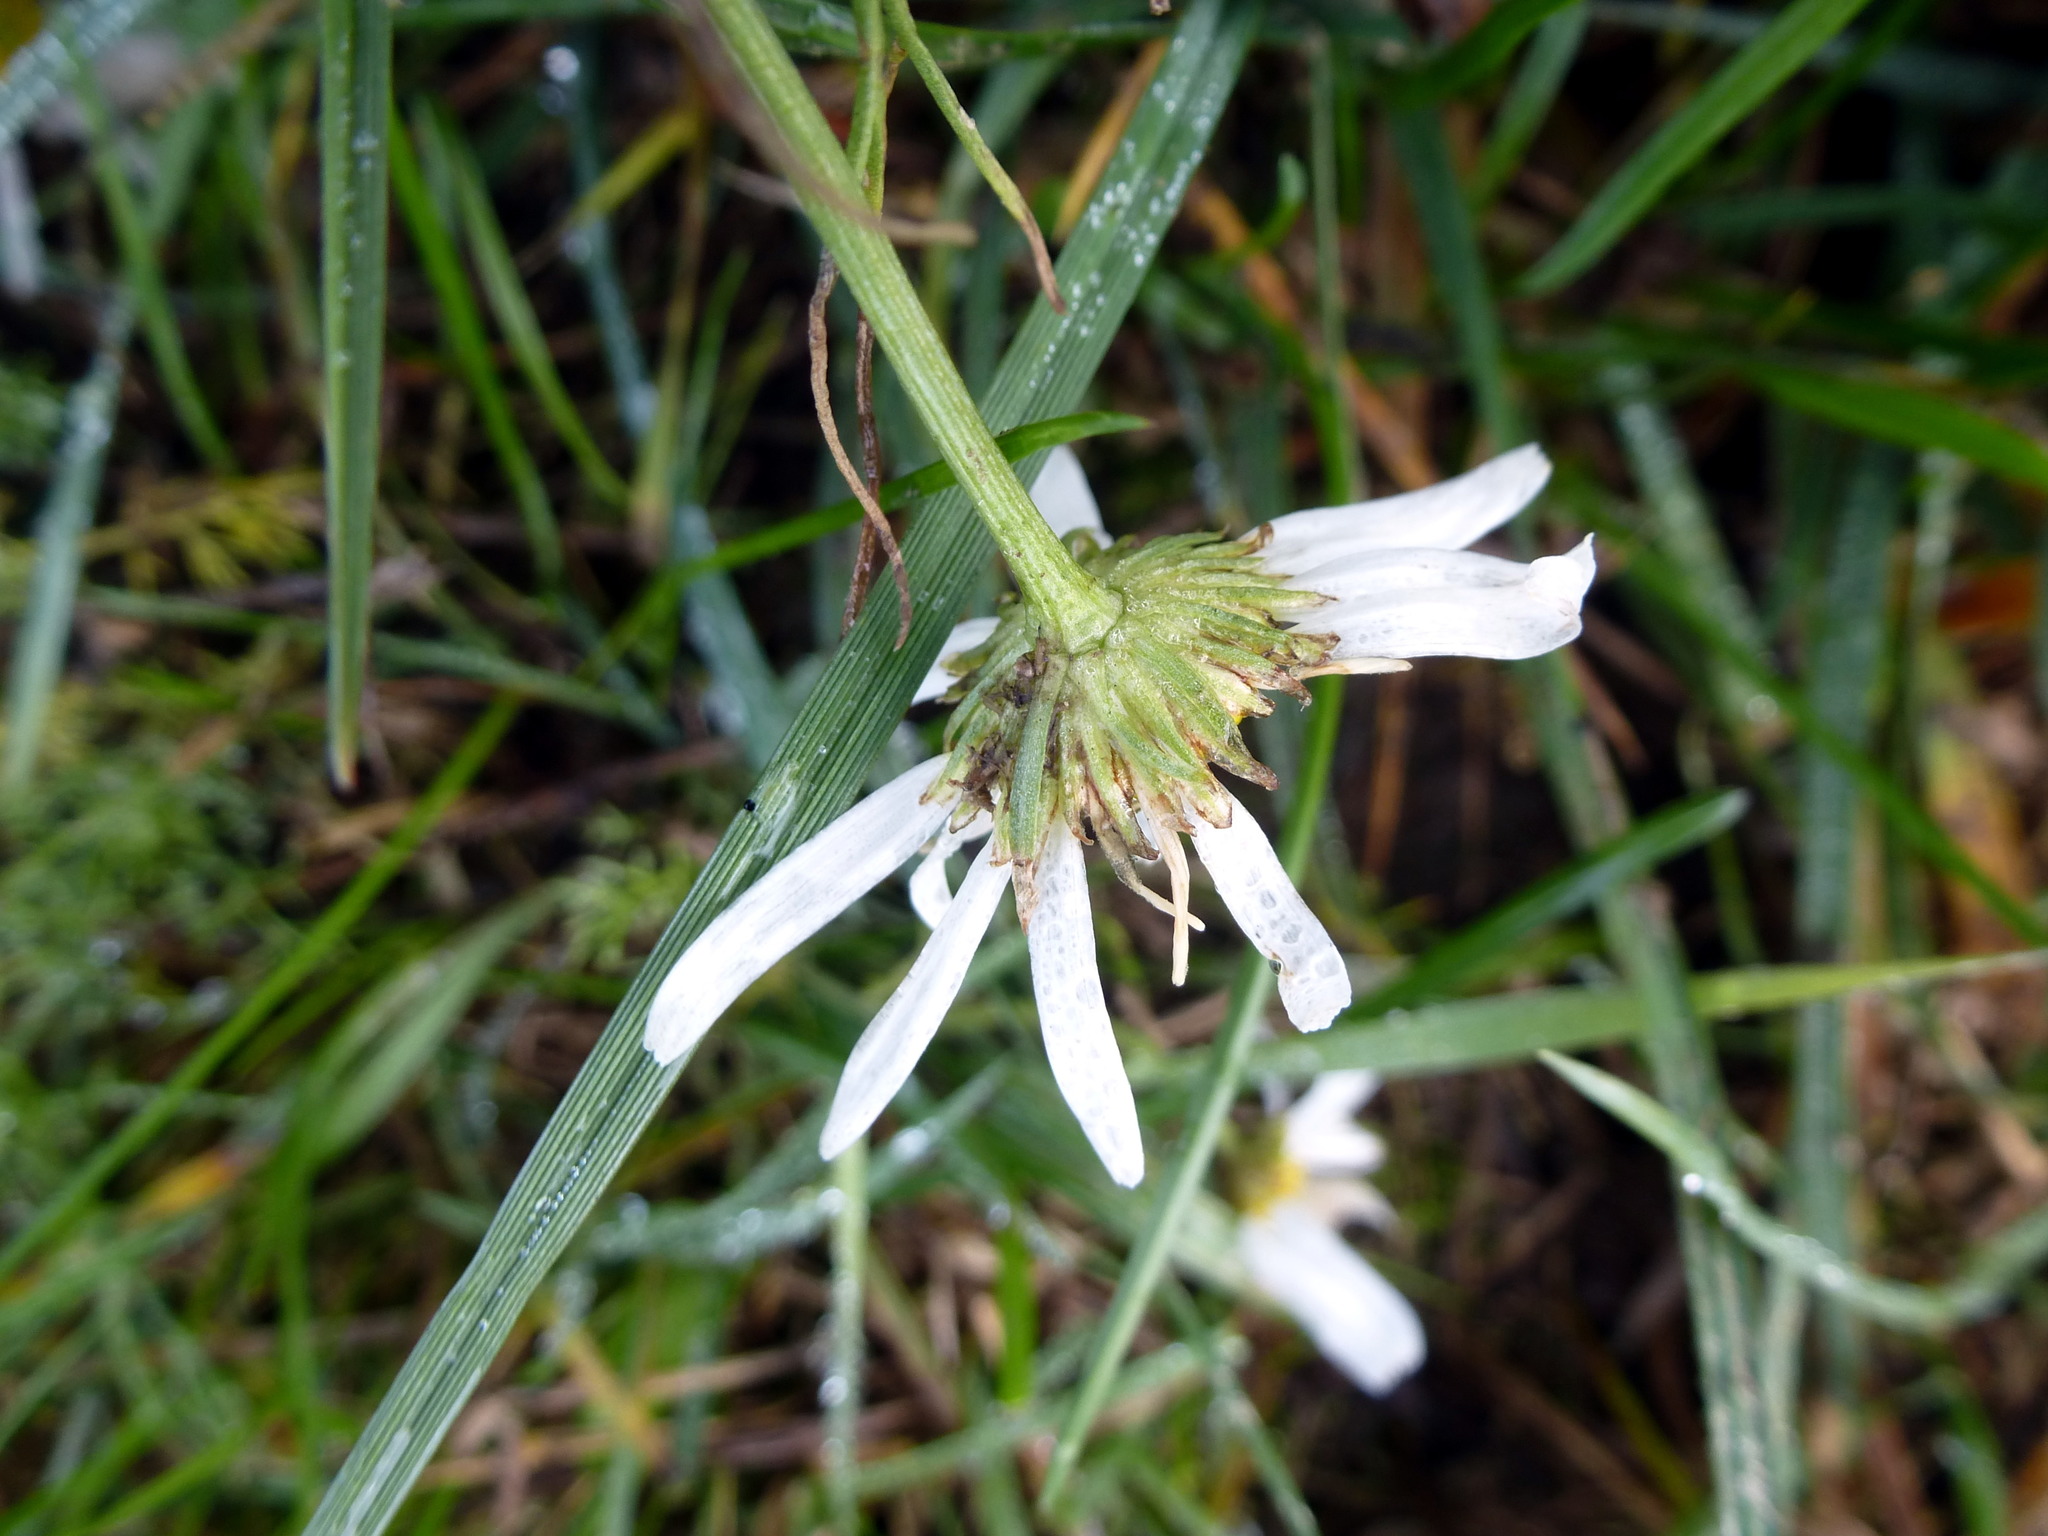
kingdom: Plantae
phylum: Tracheophyta
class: Magnoliopsida
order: Asterales
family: Asteraceae
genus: Tripleurospermum
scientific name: Tripleurospermum inodorum
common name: Scentless mayweed
